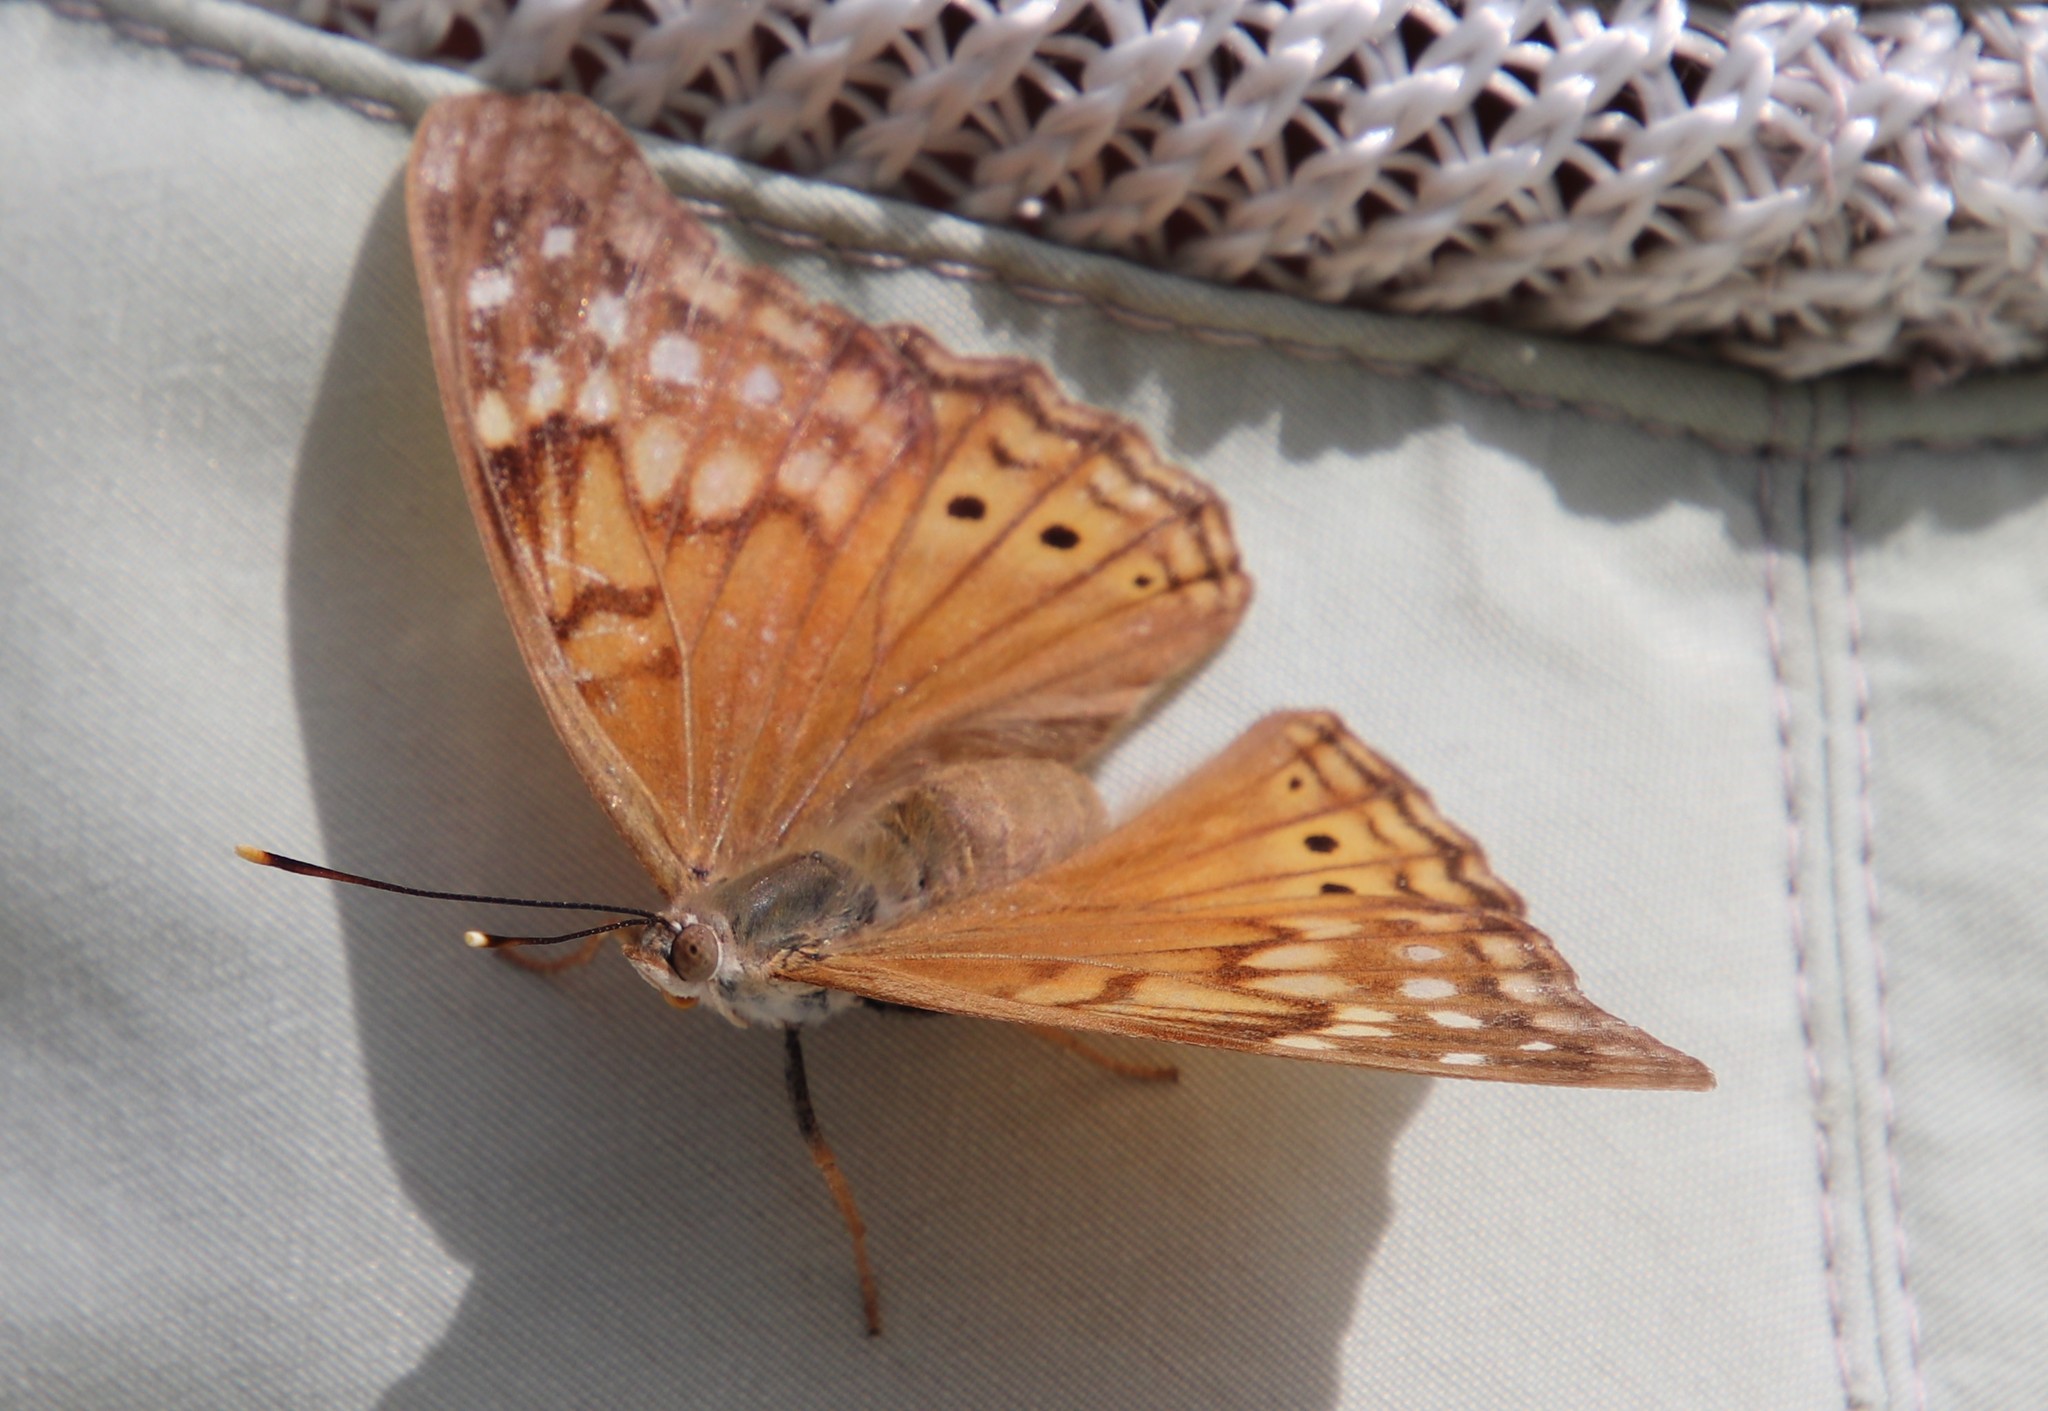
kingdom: Animalia
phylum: Arthropoda
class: Insecta
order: Lepidoptera
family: Nymphalidae
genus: Asterocampa
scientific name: Asterocampa clyton
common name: Tawny emperor
